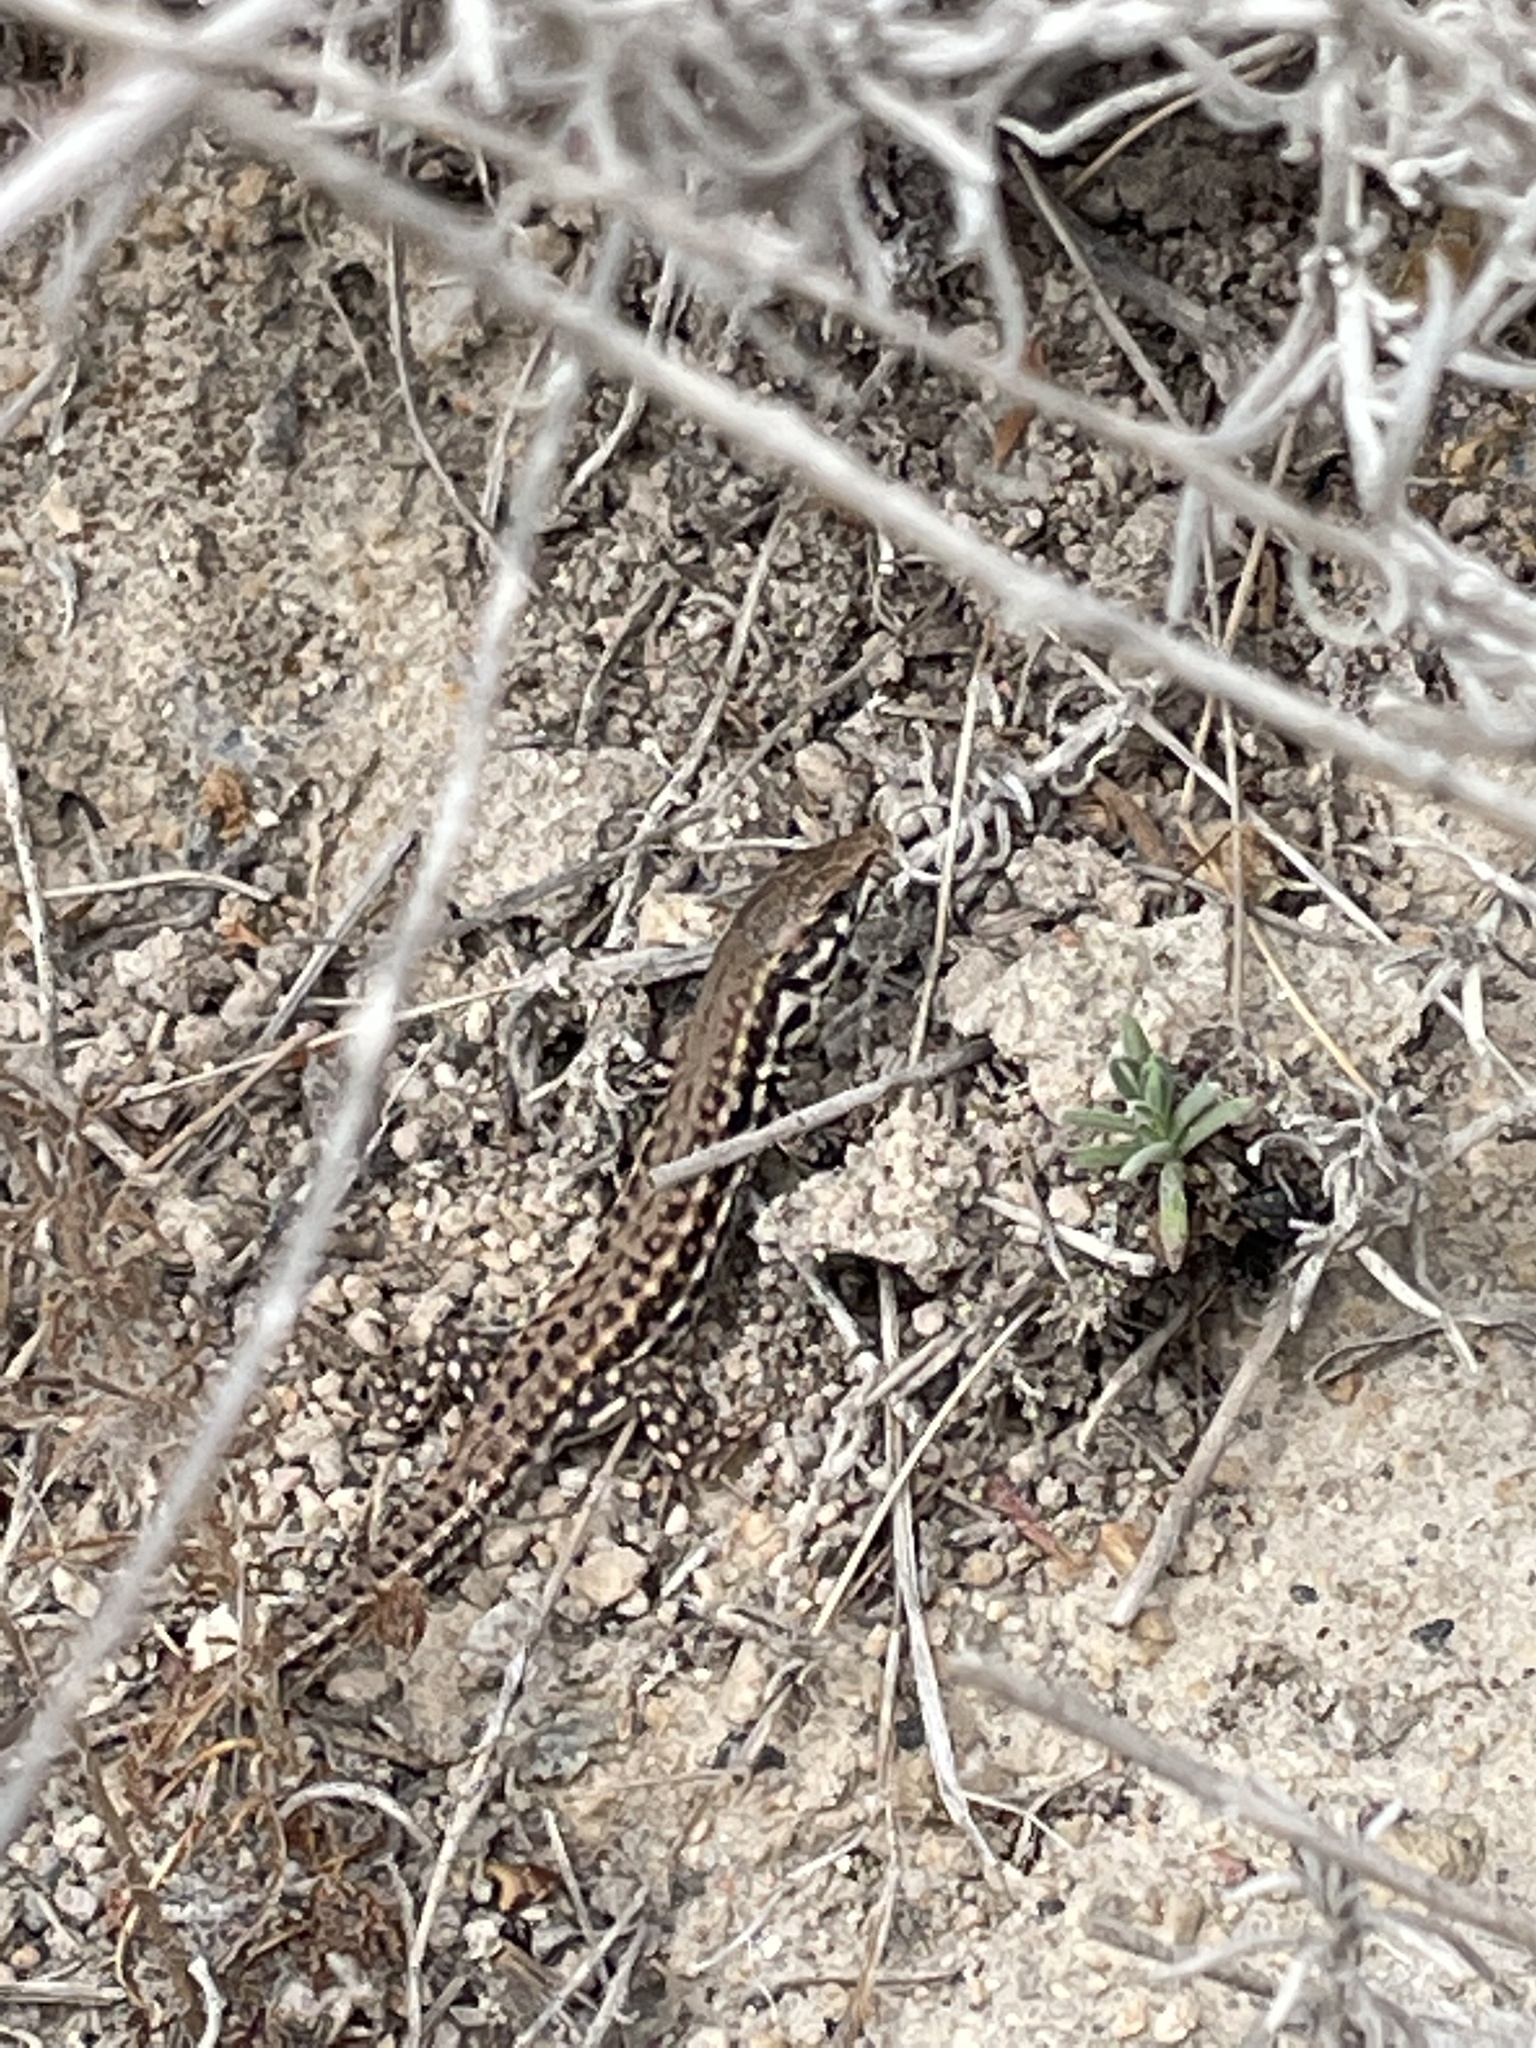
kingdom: Animalia
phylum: Chordata
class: Squamata
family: Lacertidae
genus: Podarcis
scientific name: Podarcis milensis
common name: Milos wall lizard
